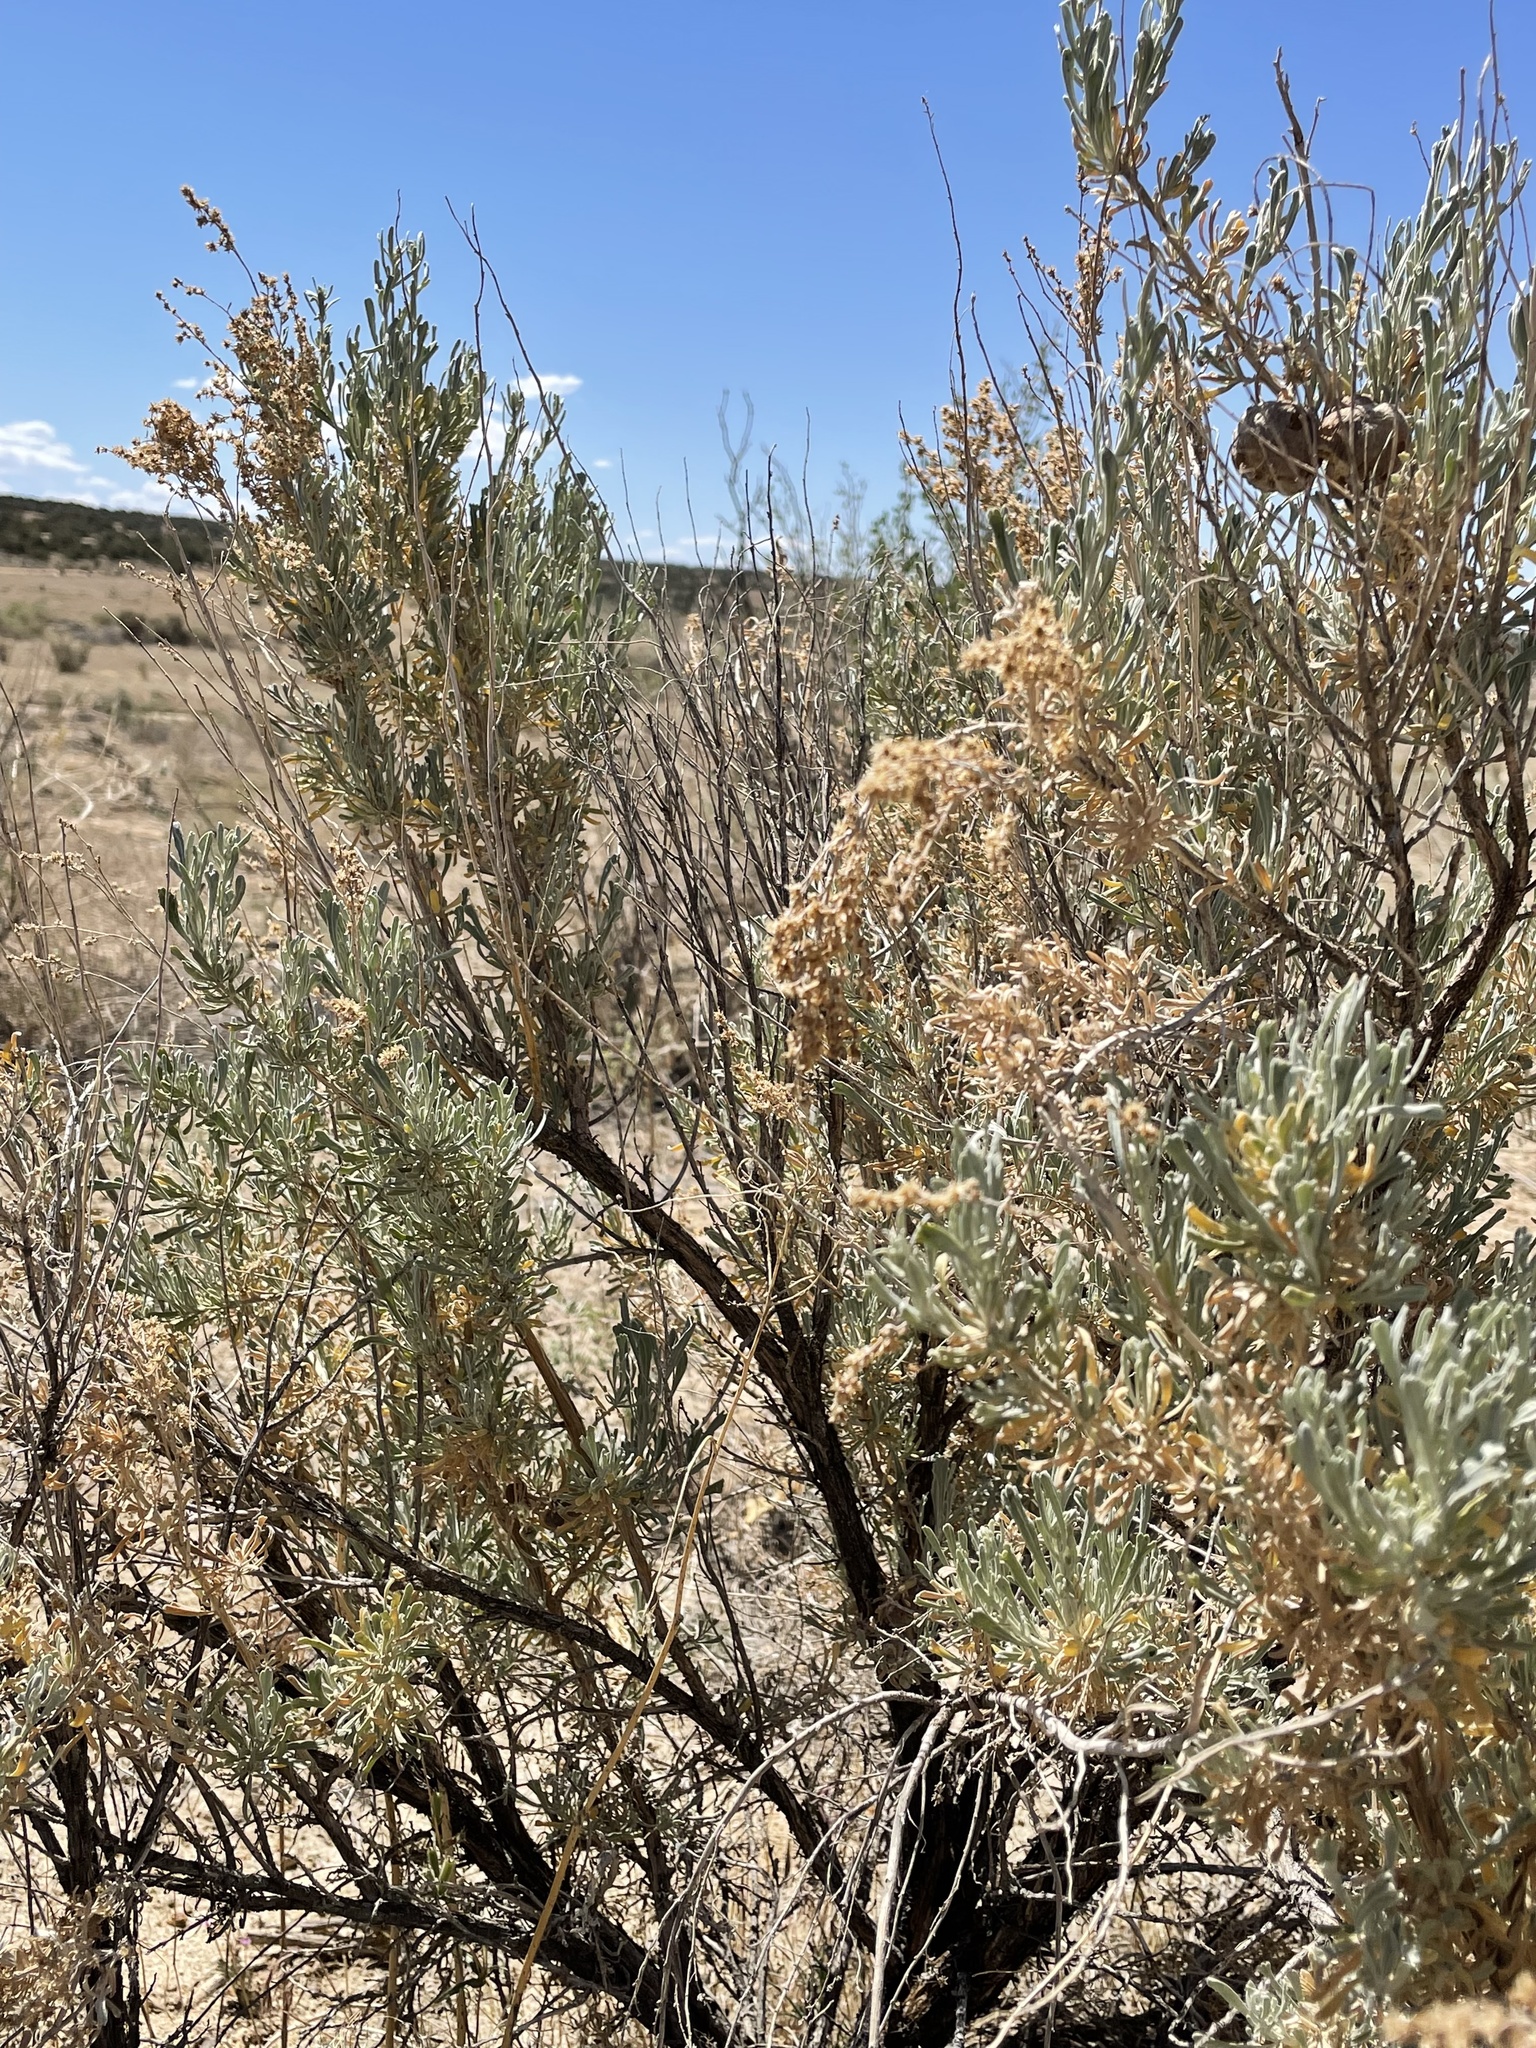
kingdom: Plantae
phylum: Tracheophyta
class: Magnoliopsida
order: Asterales
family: Asteraceae
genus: Artemisia
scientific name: Artemisia tridentata
